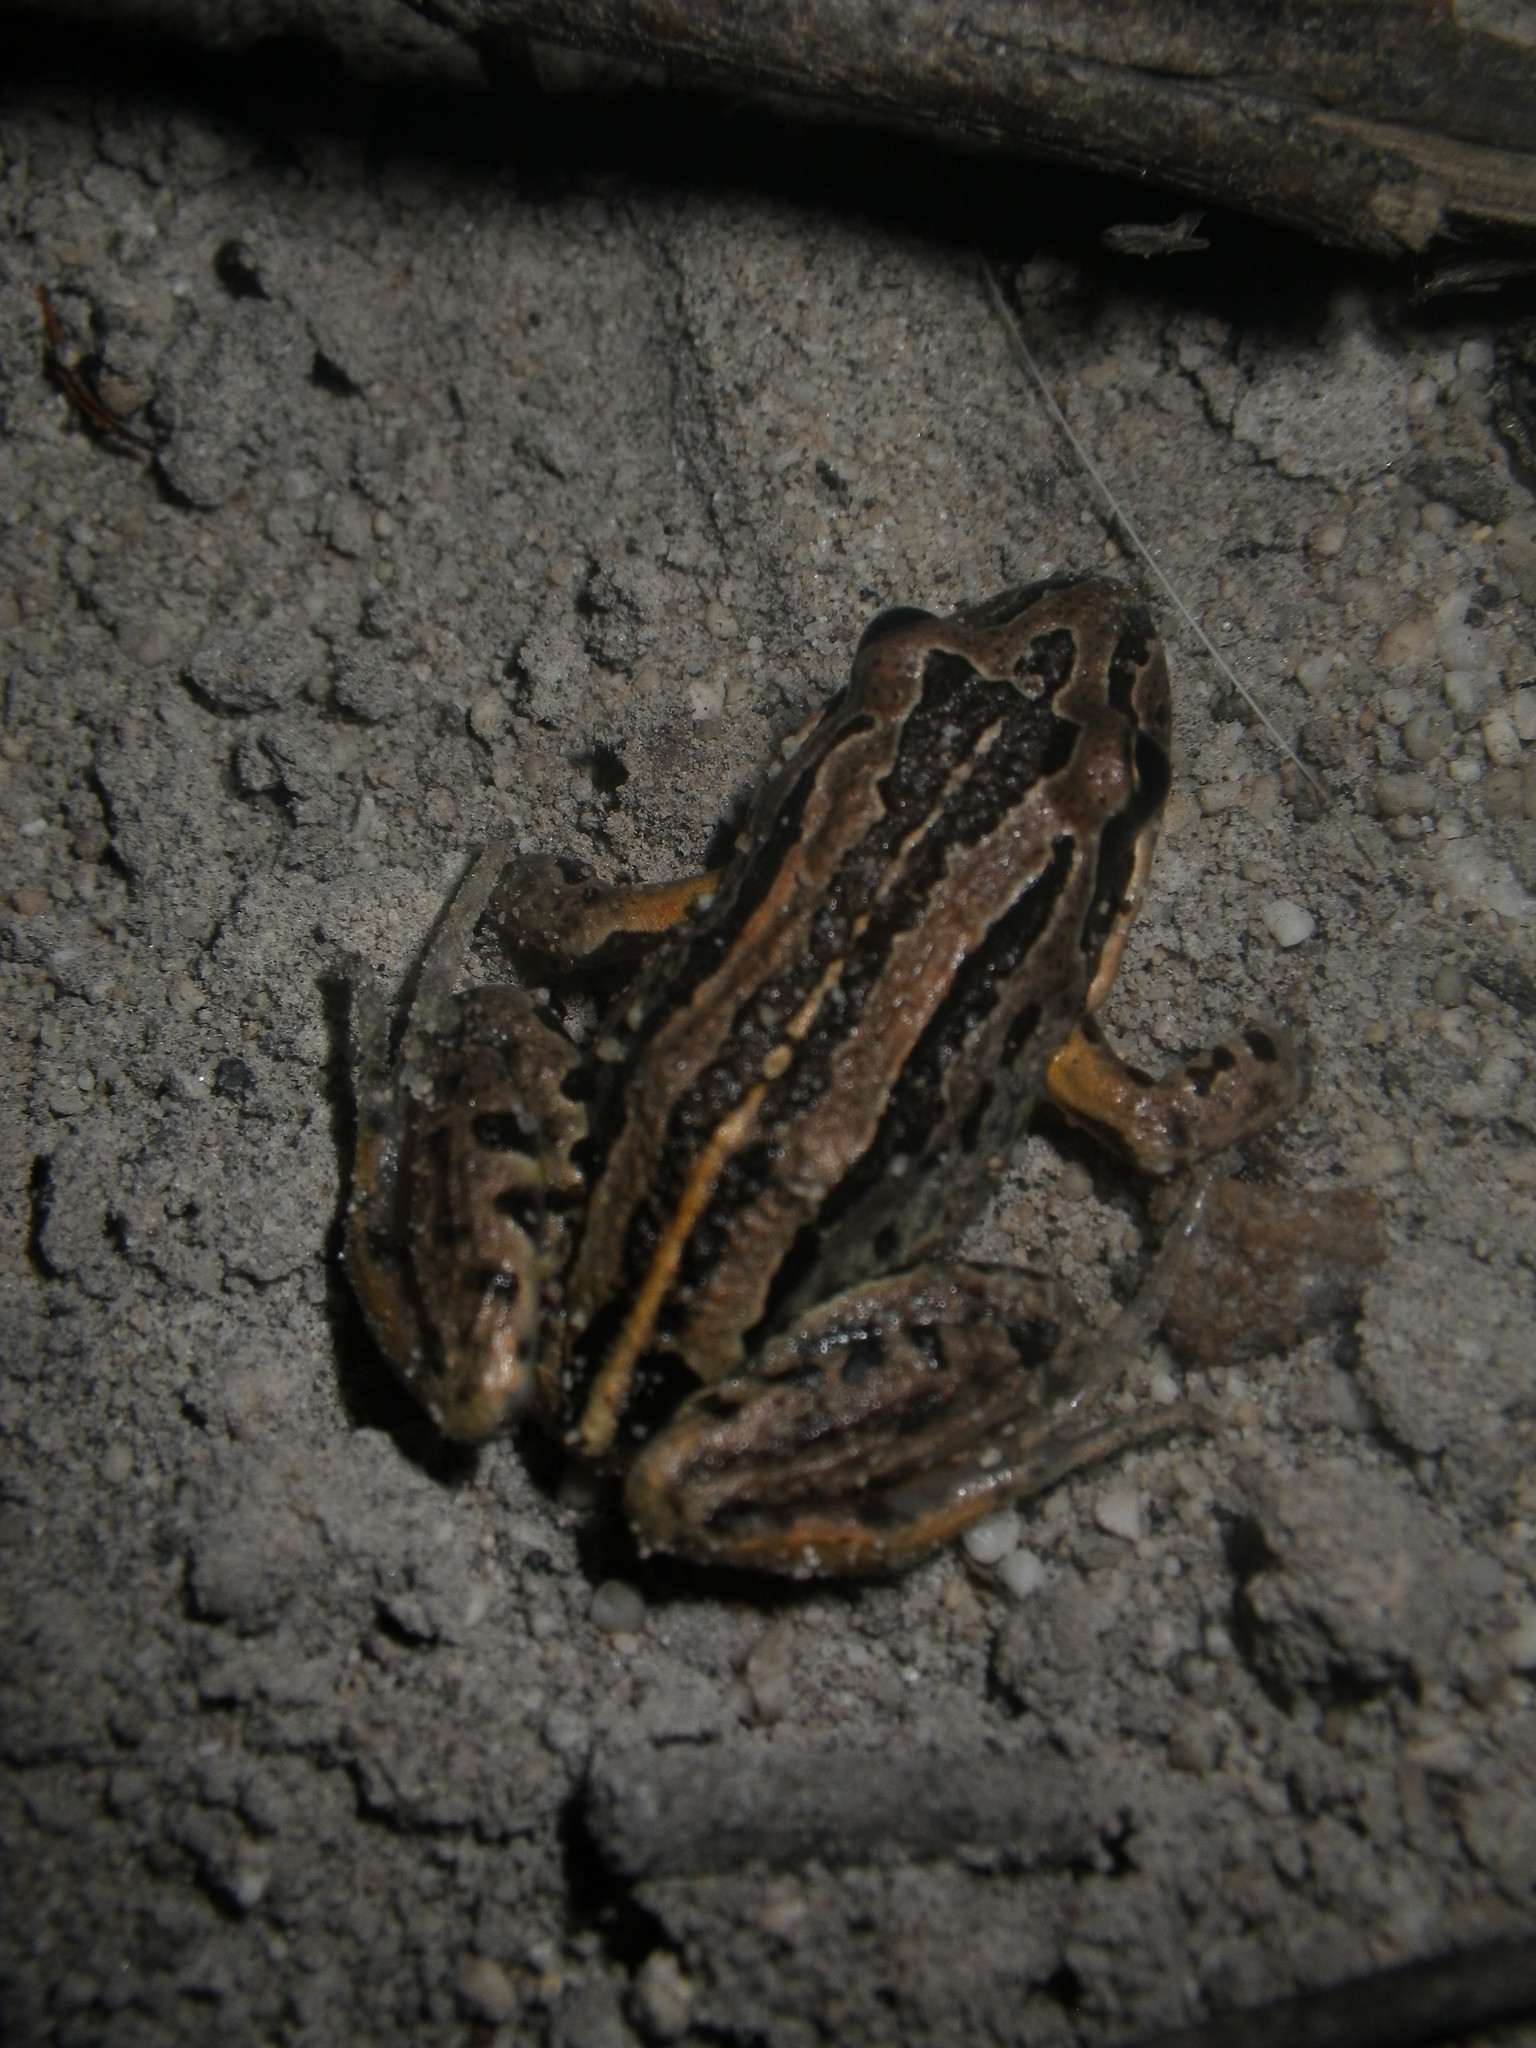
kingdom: Animalia
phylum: Chordata
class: Amphibia
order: Anura
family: Limnodynastidae
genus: Limnodynastes
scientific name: Limnodynastes peronii
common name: Brown frog
